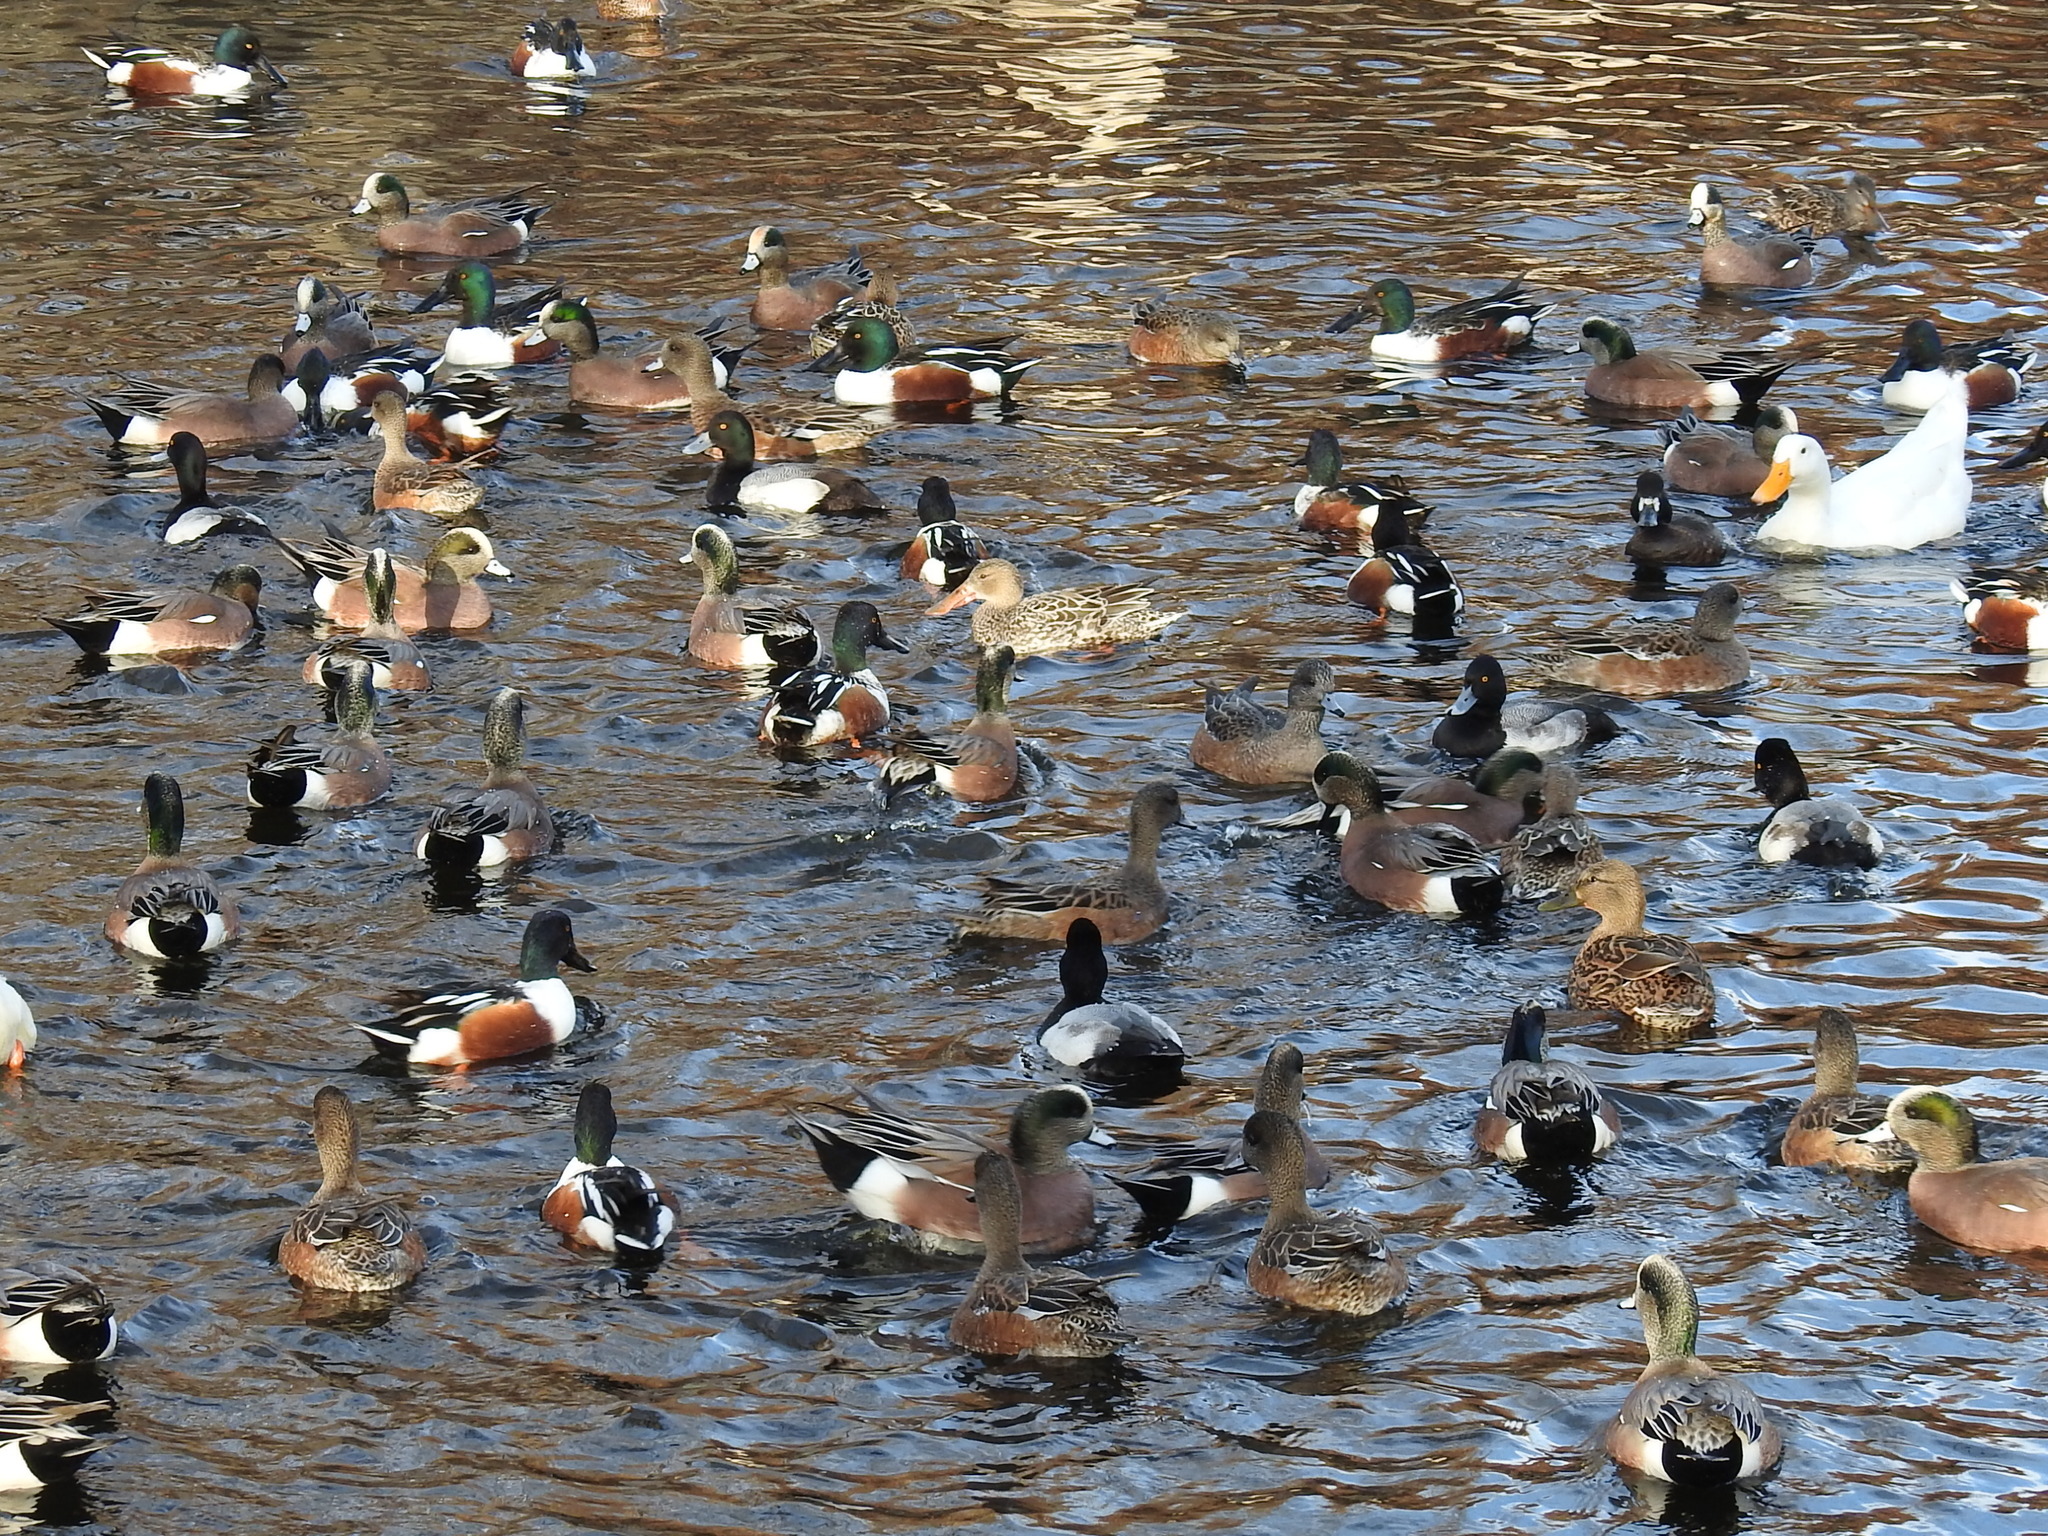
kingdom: Animalia
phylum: Chordata
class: Aves
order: Anseriformes
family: Anatidae
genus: Mareca
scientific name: Mareca americana
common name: American wigeon
